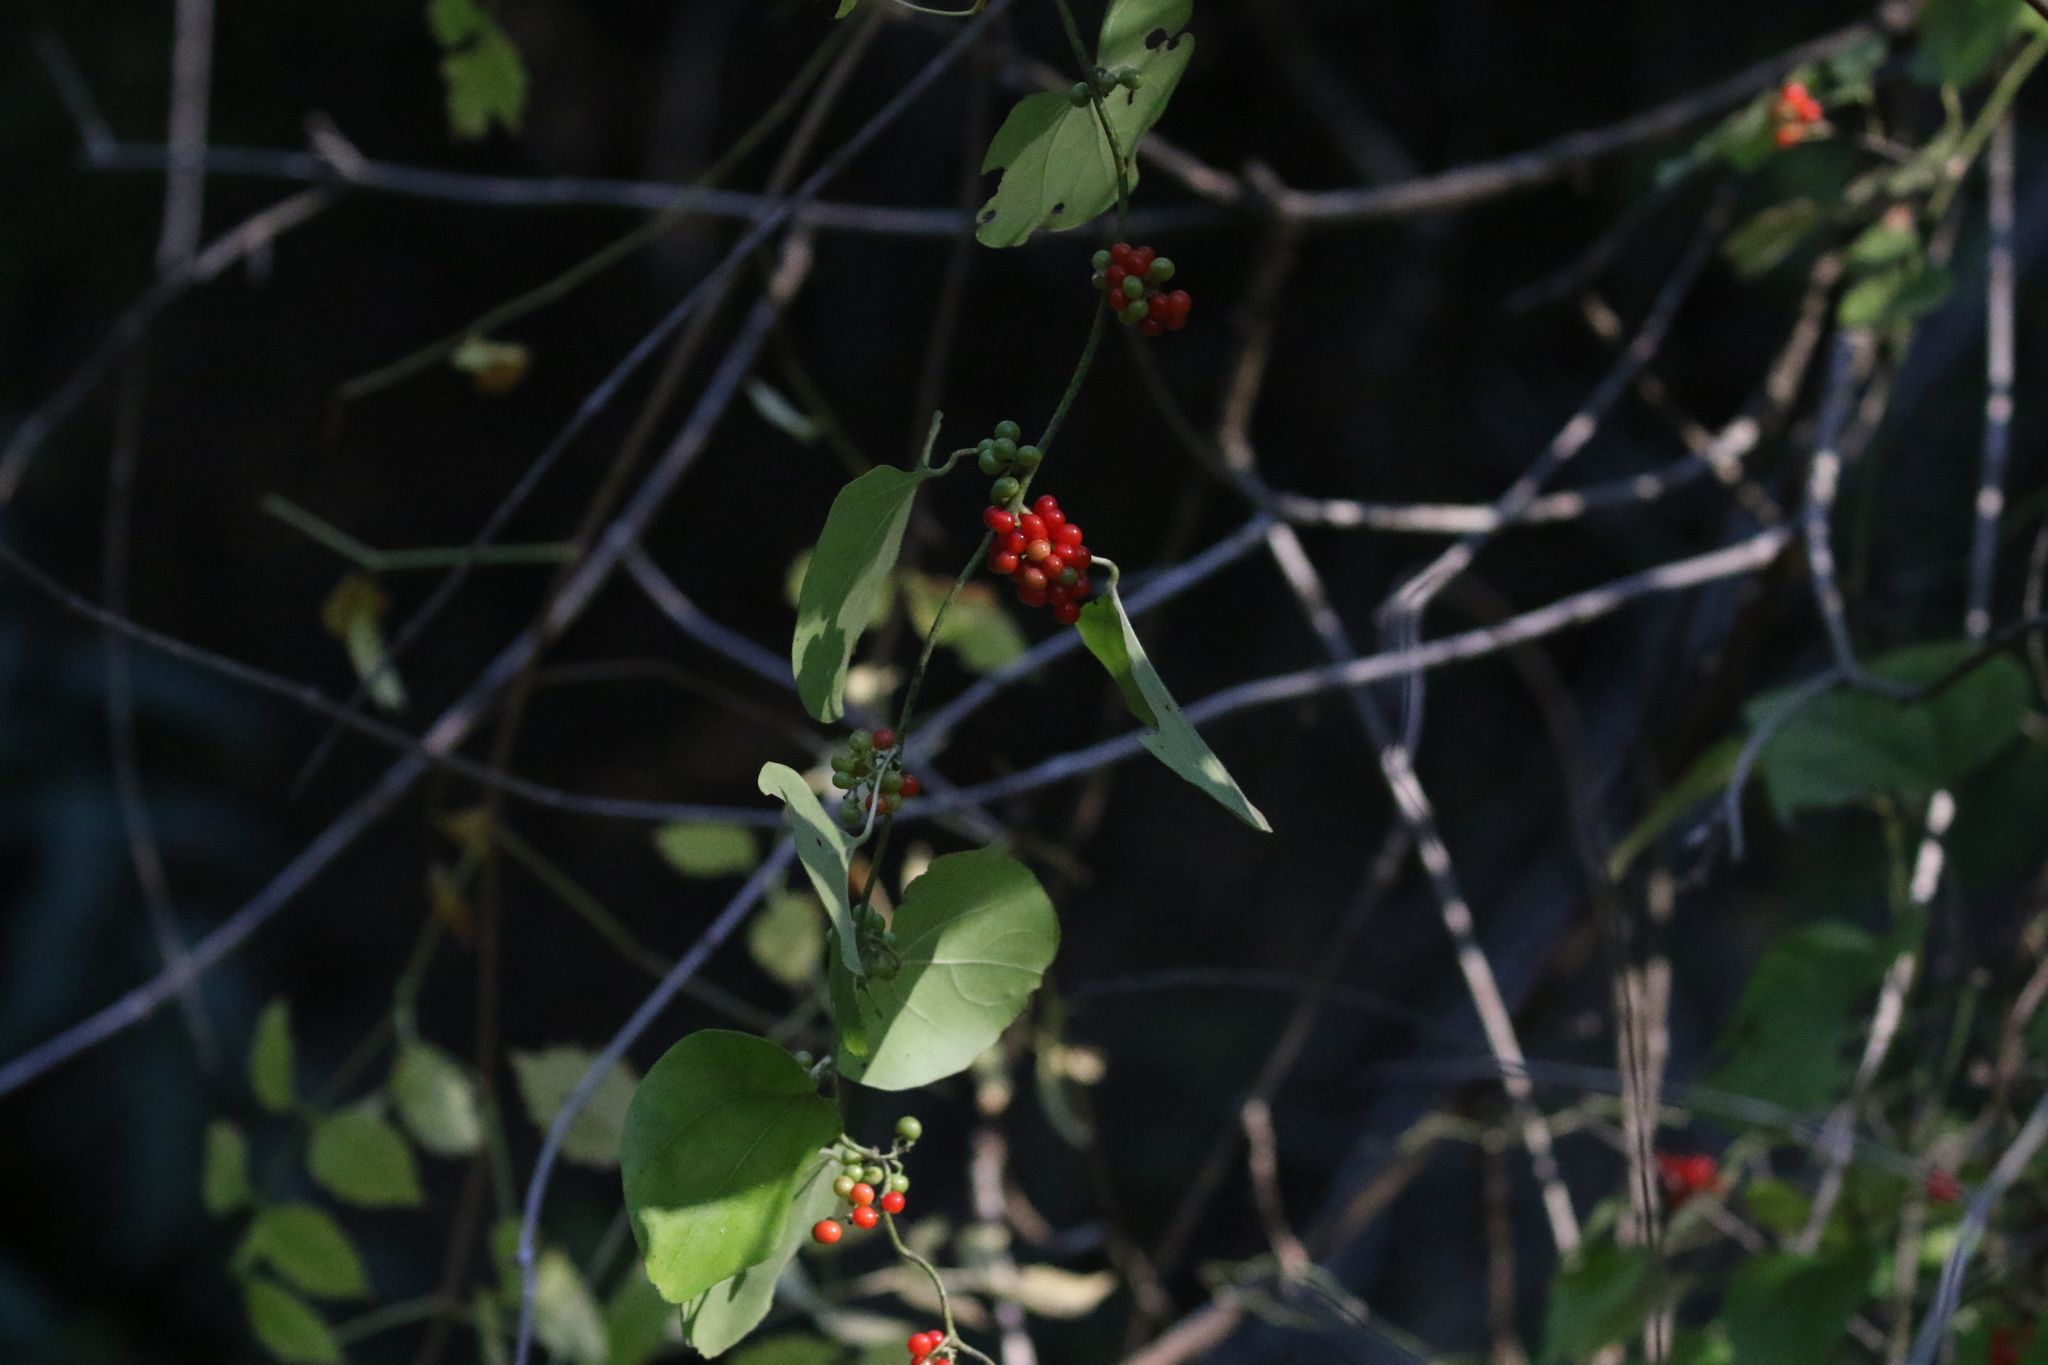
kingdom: Plantae
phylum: Tracheophyta
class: Magnoliopsida
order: Ranunculales
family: Menispermaceae
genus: Cocculus
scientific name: Cocculus carolinus
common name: Carolina moonseed
